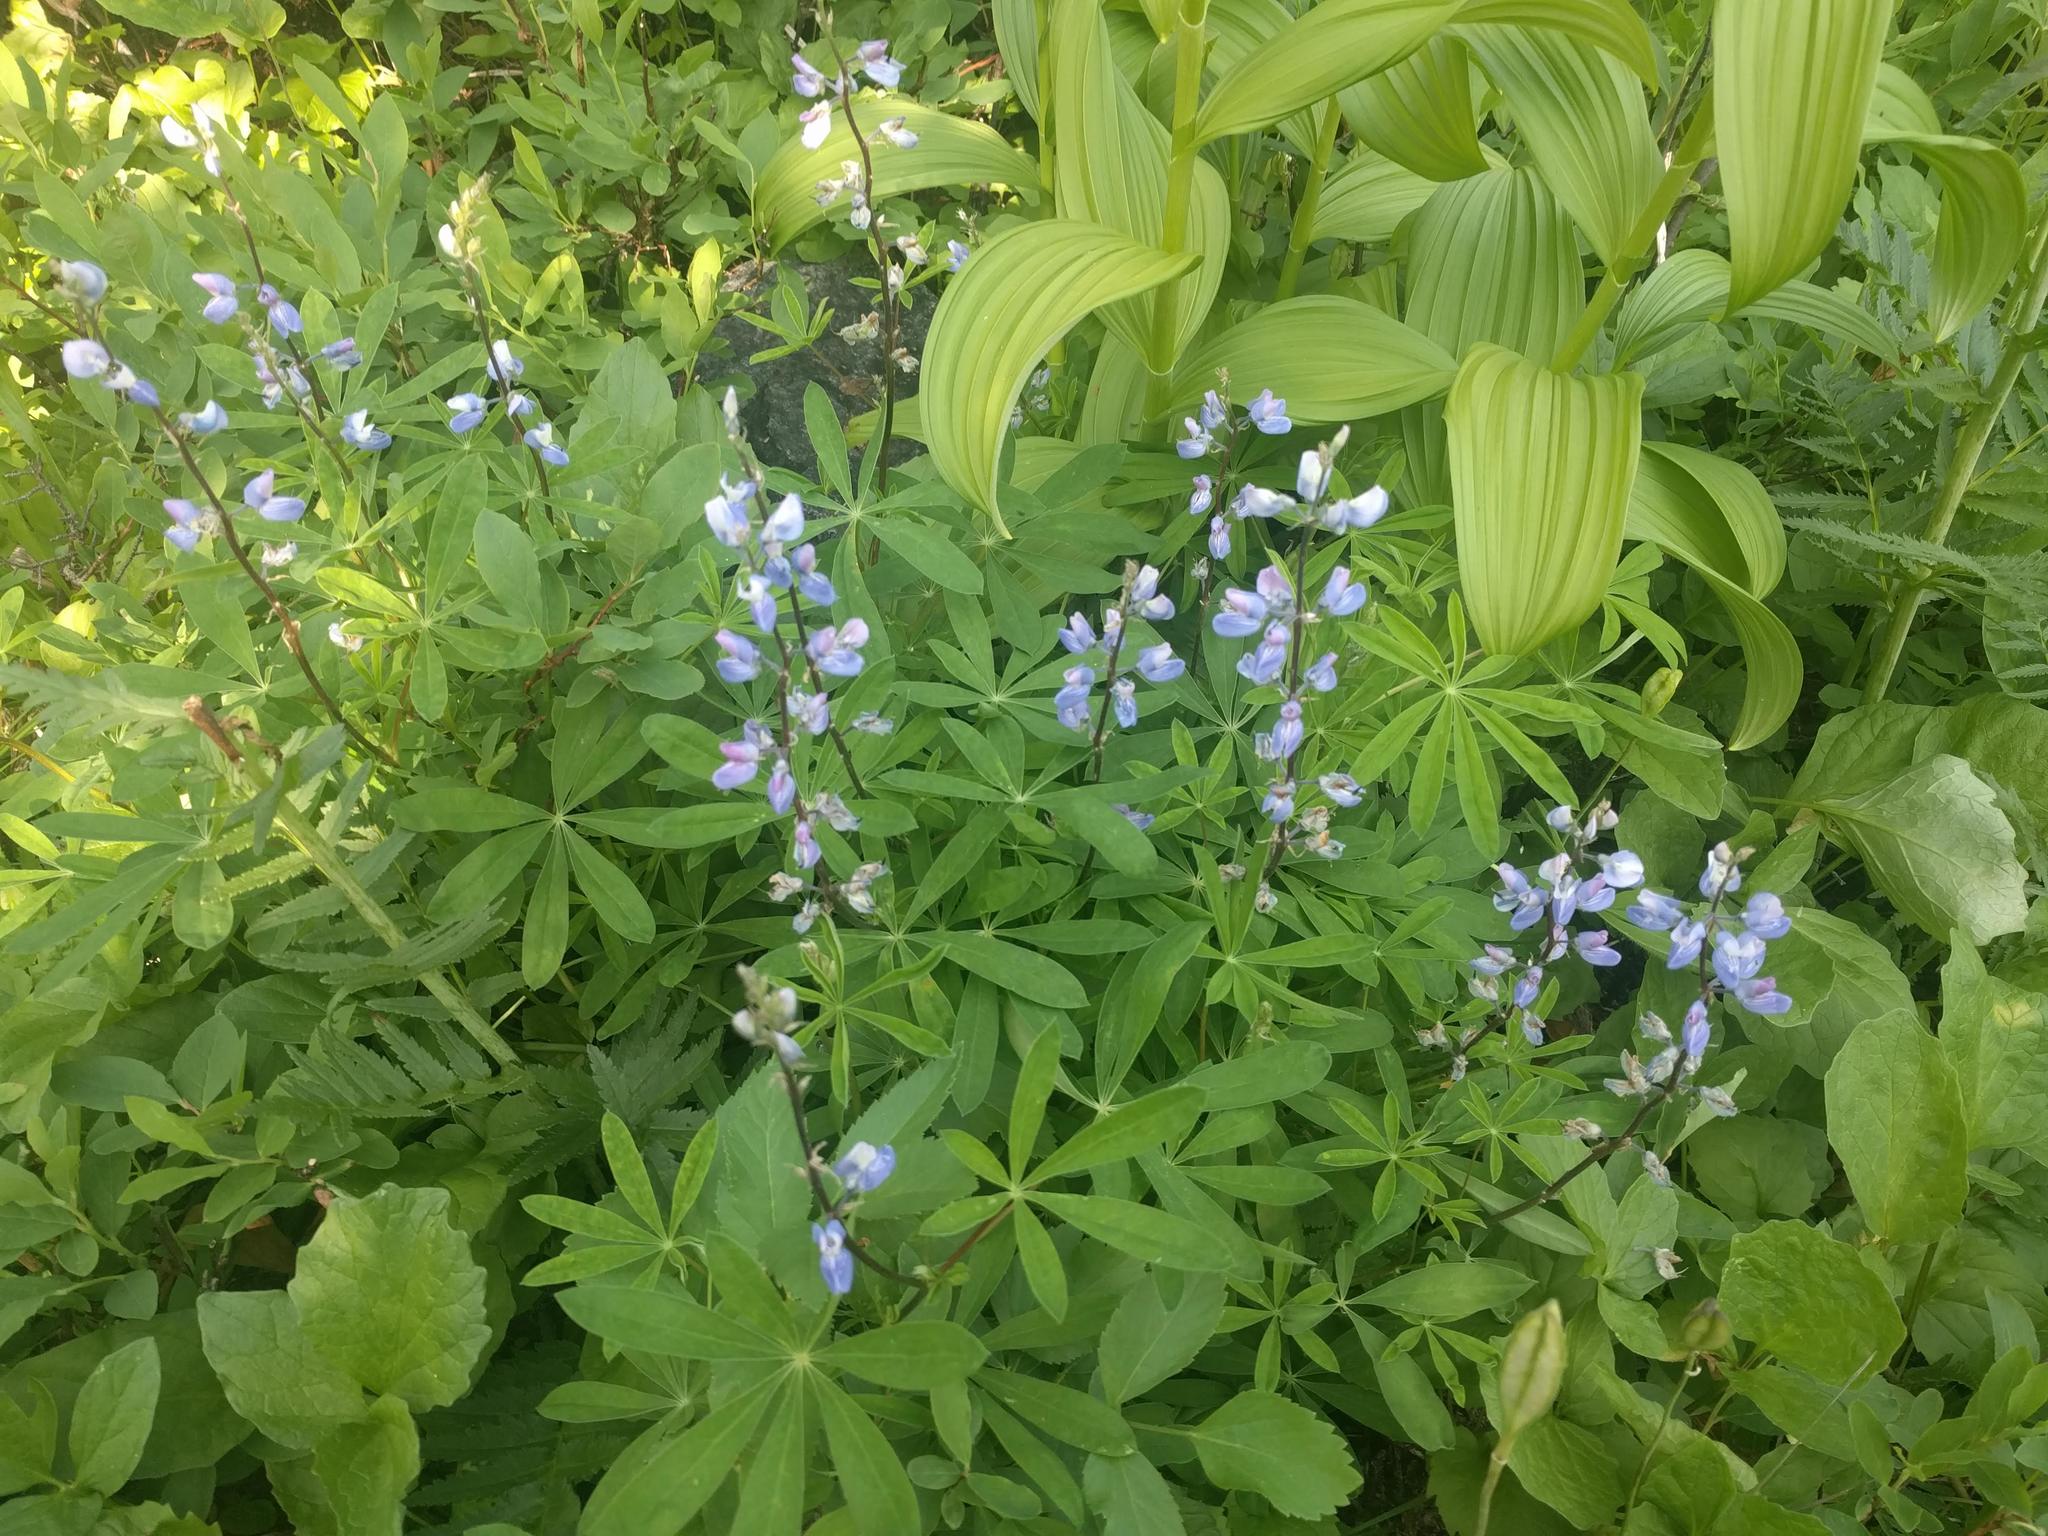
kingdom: Plantae
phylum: Tracheophyta
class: Magnoliopsida
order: Fabales
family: Fabaceae
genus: Lupinus
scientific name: Lupinus latifolius
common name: Broad-leaved lupine
